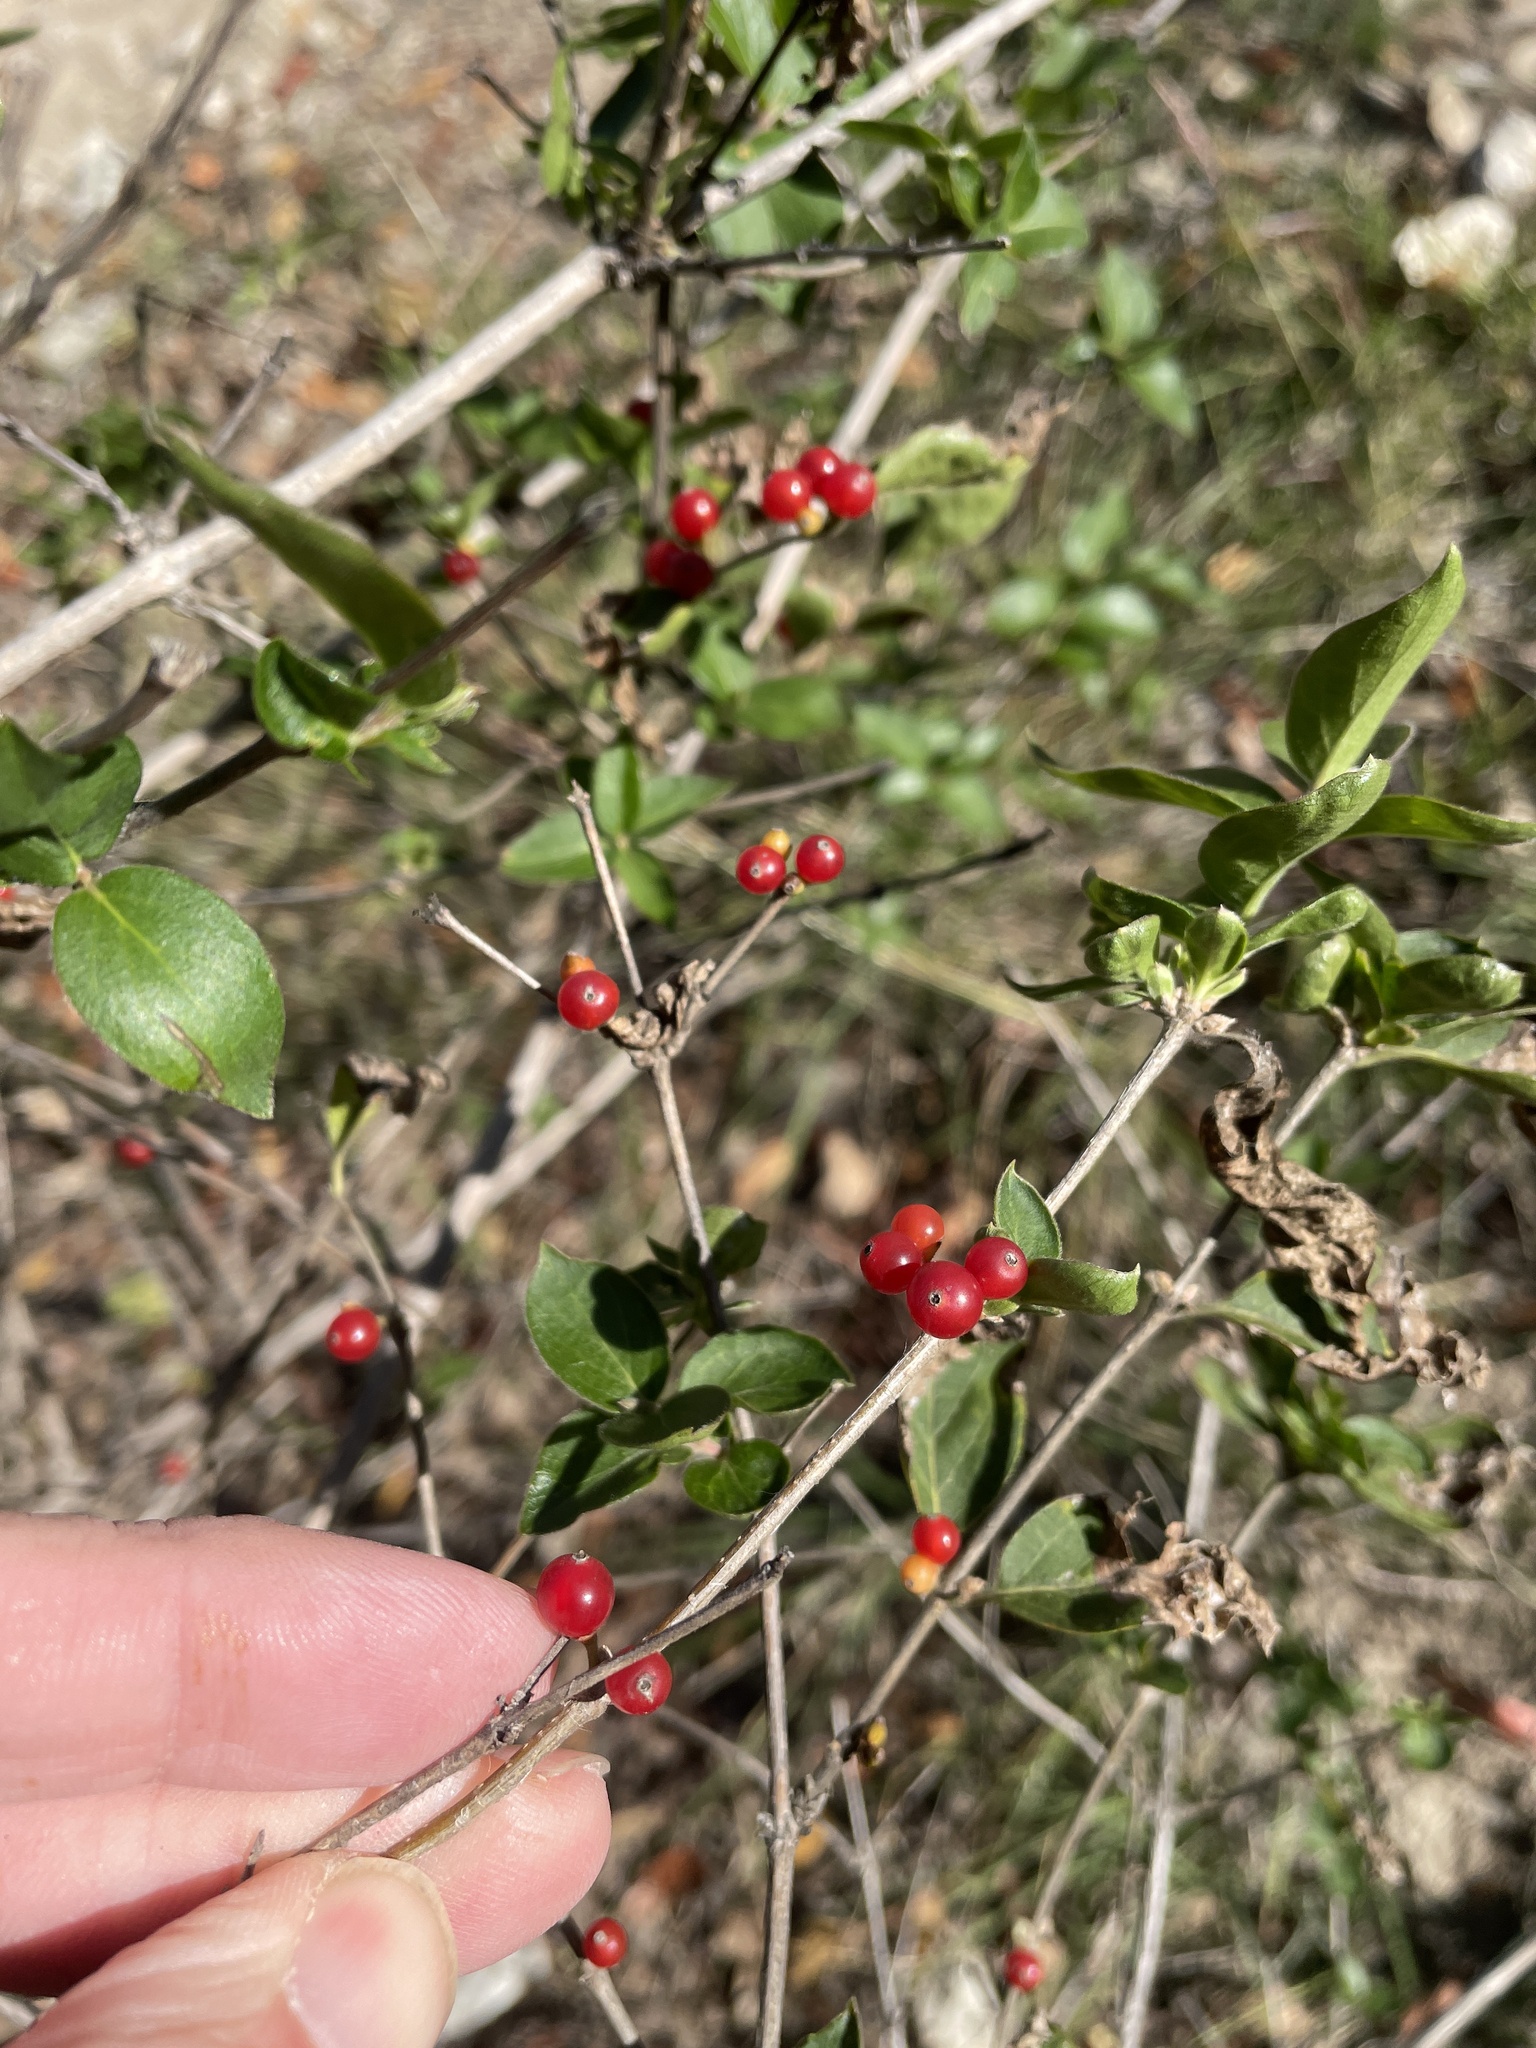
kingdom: Plantae
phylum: Tracheophyta
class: Magnoliopsida
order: Dipsacales
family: Caprifoliaceae
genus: Lonicera
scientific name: Lonicera fragrantissima
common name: Fragrant honeysuckle
